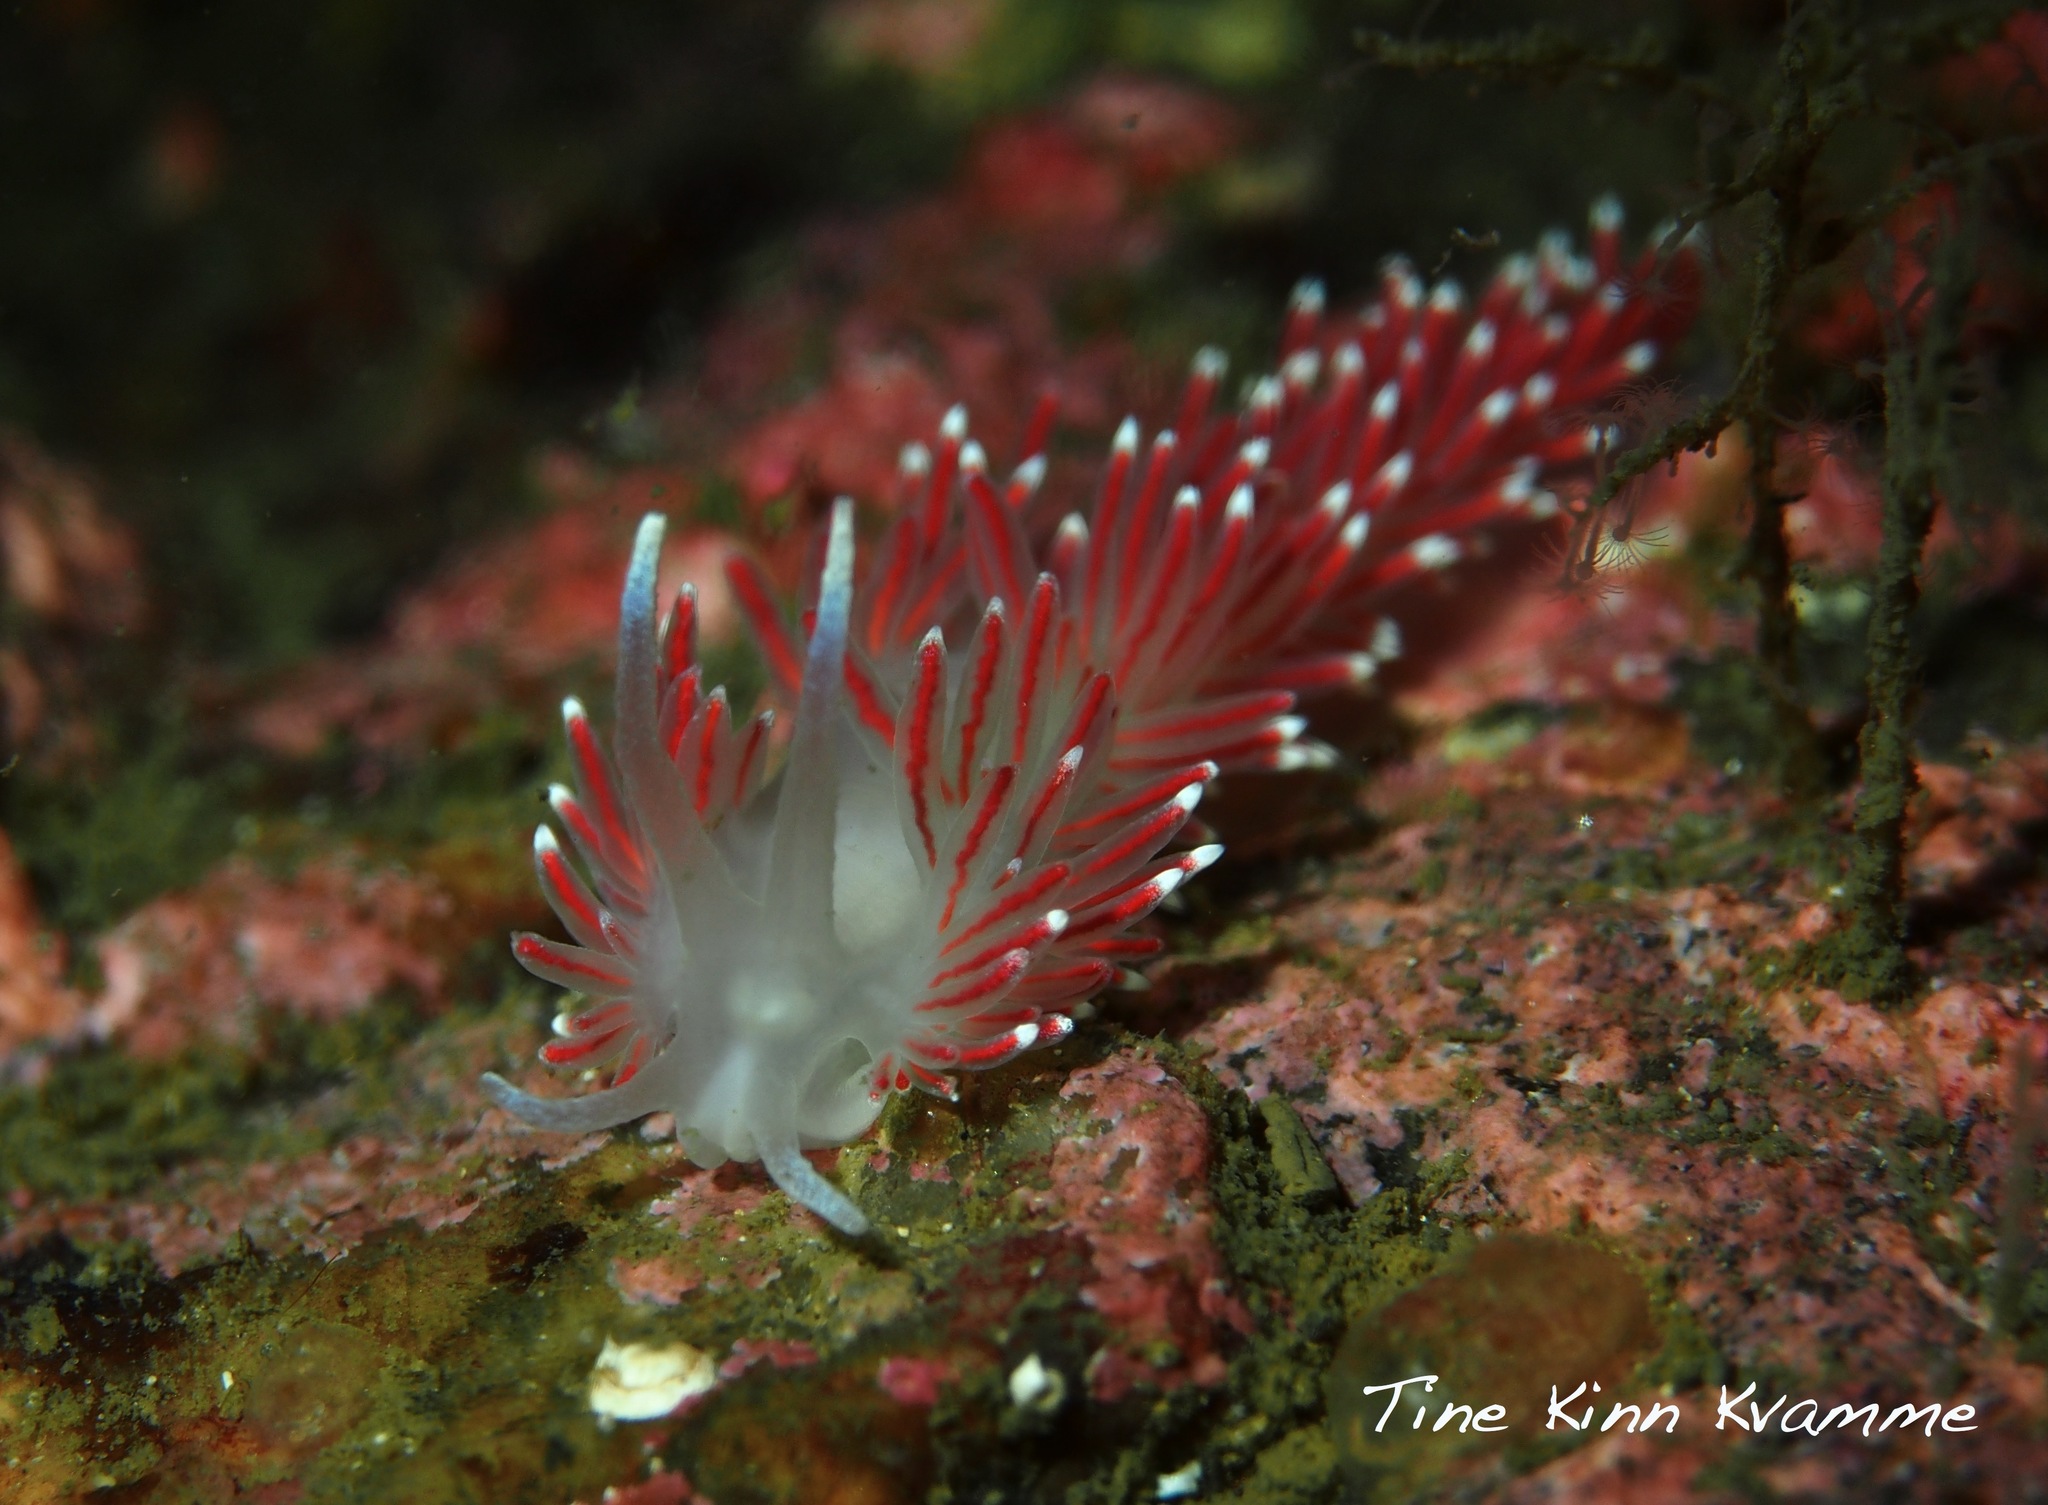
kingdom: Animalia
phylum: Mollusca
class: Gastropoda
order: Nudibranchia
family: Flabellinidae
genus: Carronella
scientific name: Carronella pellucida
